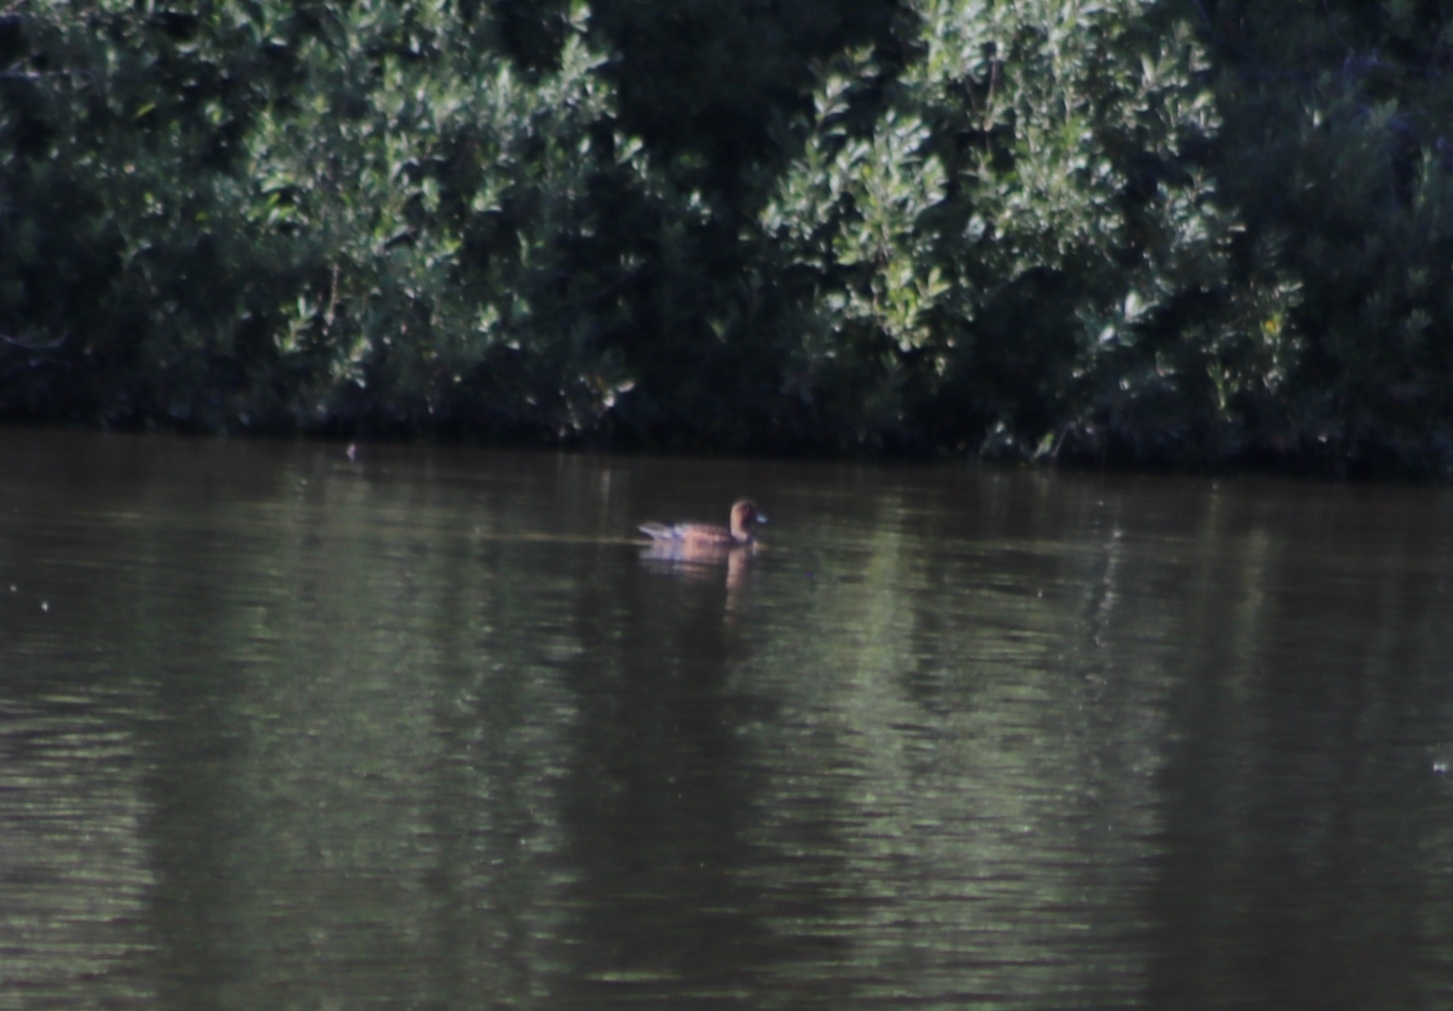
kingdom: Animalia
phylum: Chordata
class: Aves
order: Anseriformes
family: Anatidae
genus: Mareca
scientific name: Mareca penelope
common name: Eurasian wigeon
